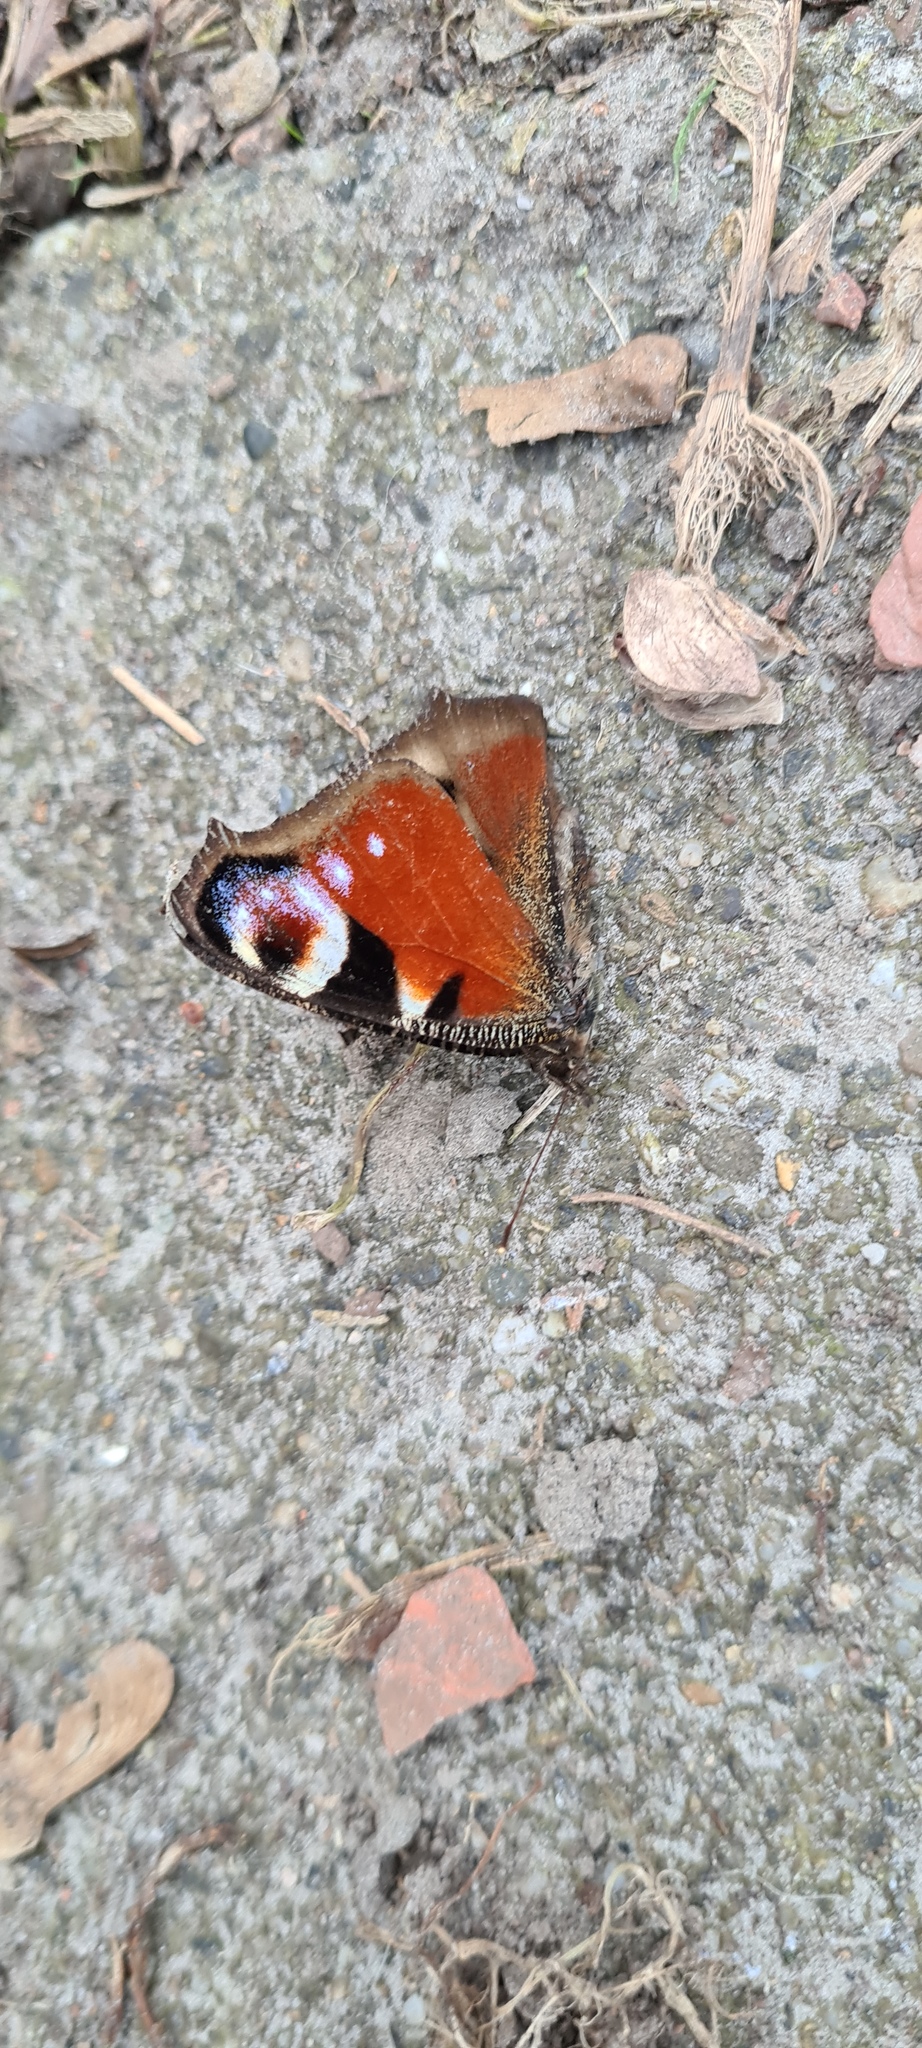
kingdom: Animalia
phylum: Arthropoda
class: Insecta
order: Lepidoptera
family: Nymphalidae
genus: Aglais
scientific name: Aglais io
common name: Peacock
